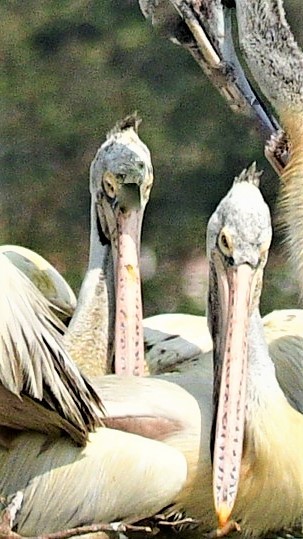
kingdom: Animalia
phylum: Chordata
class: Aves
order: Pelecaniformes
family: Pelecanidae
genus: Pelecanus
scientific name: Pelecanus philippensis
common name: Spot-billed pelican
